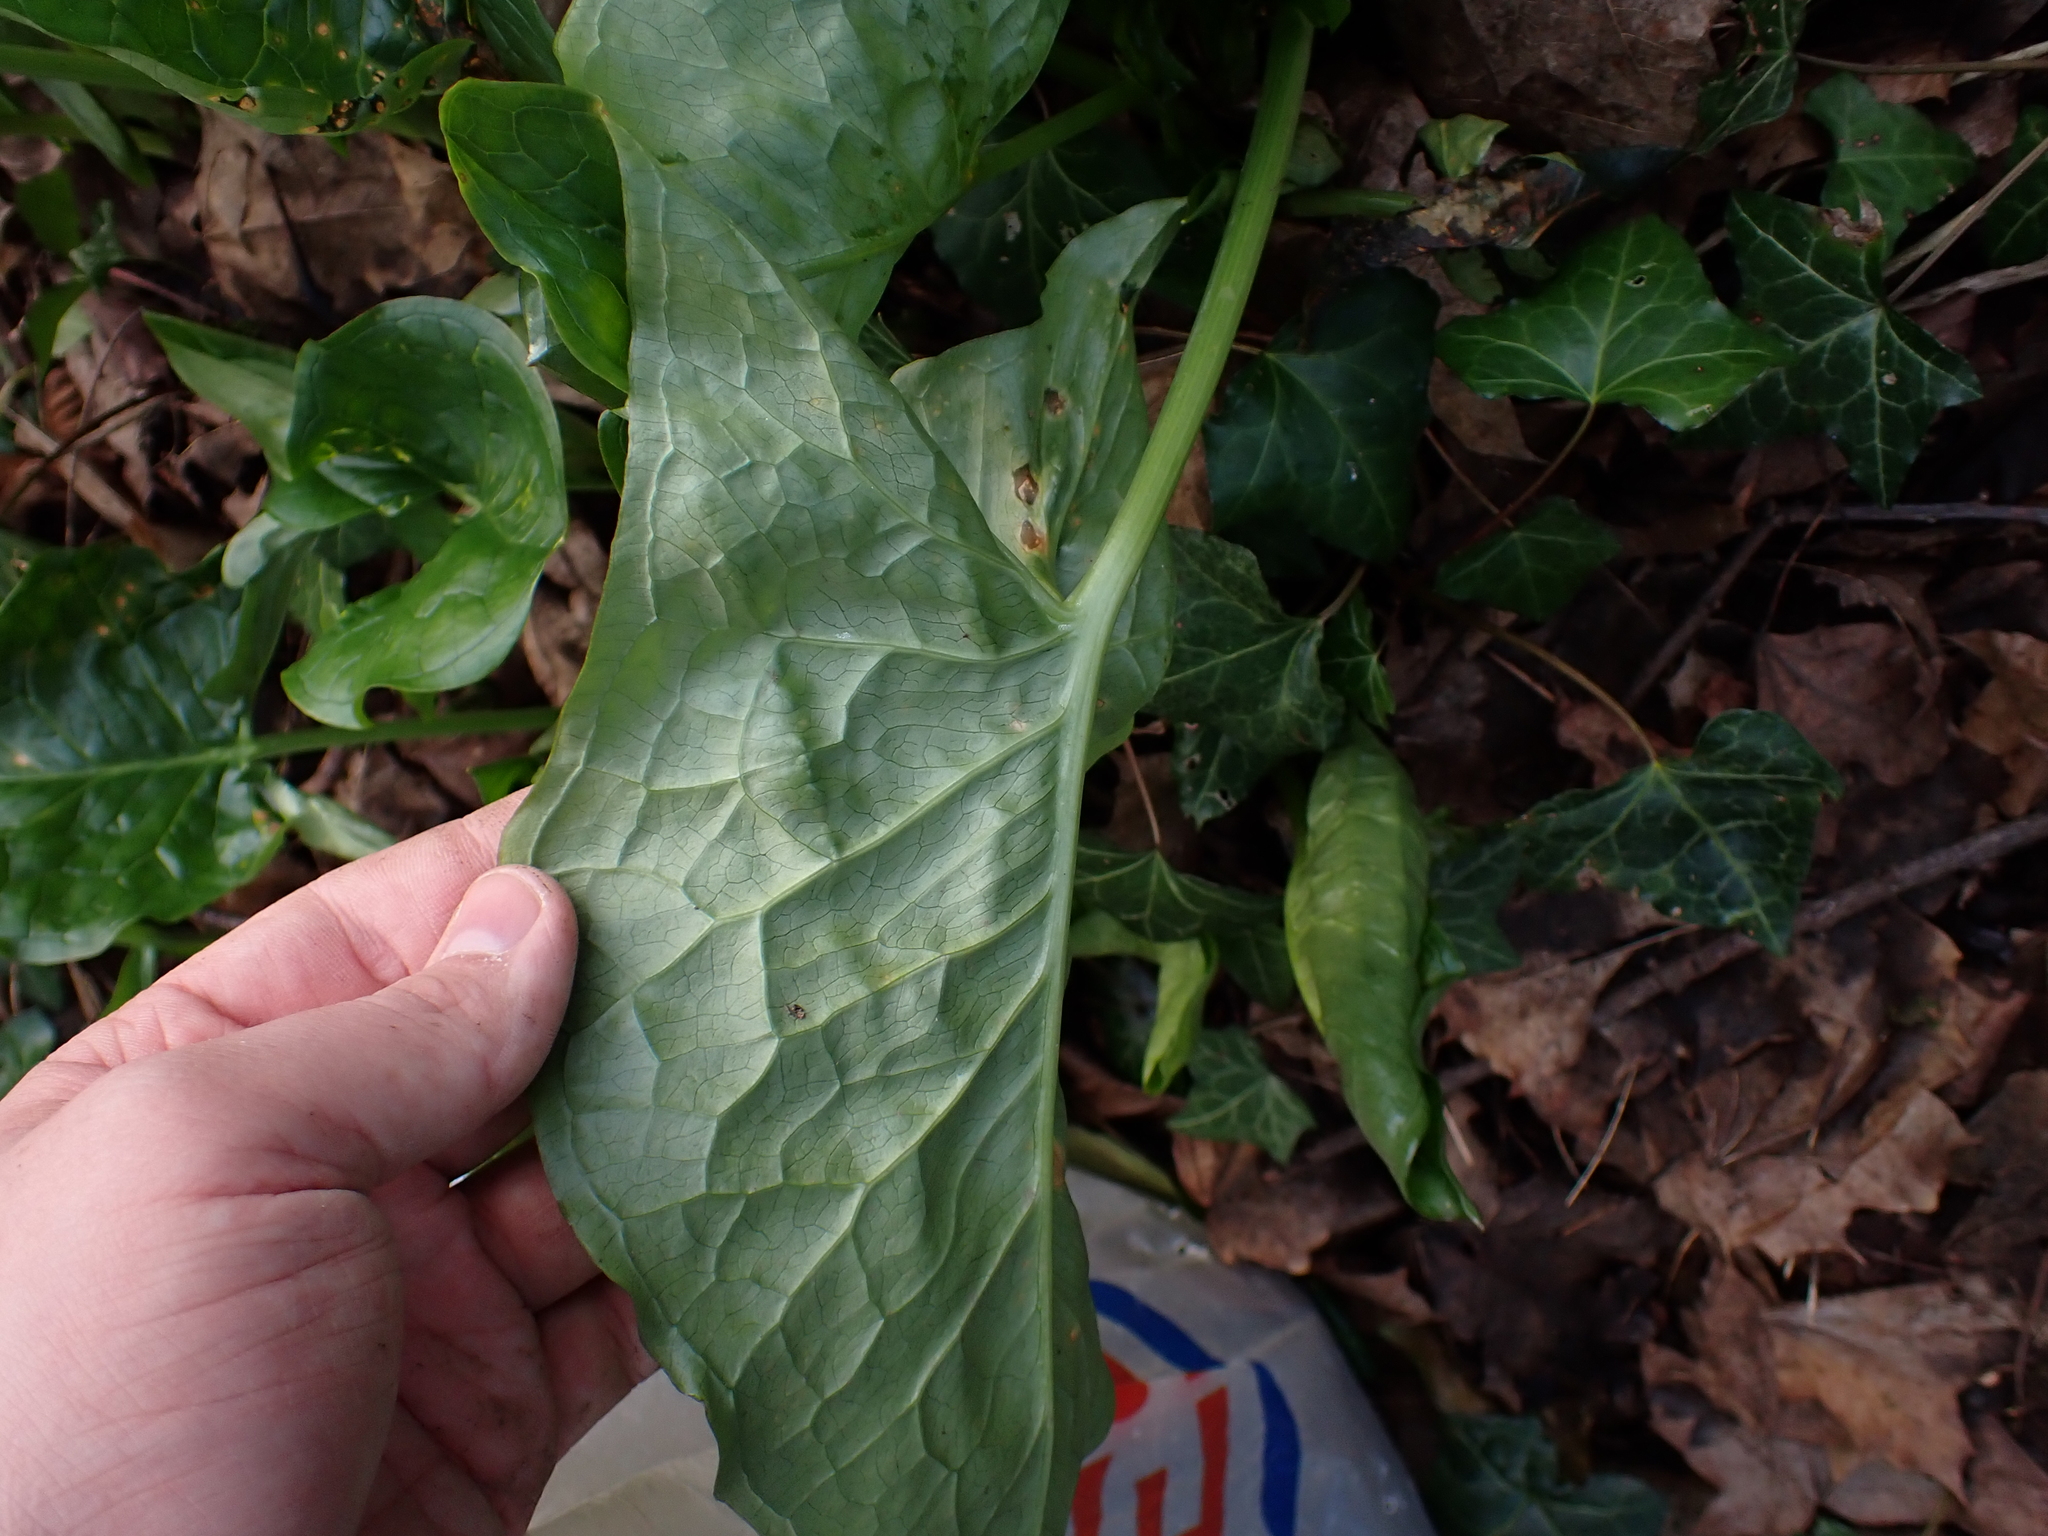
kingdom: Plantae
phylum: Tracheophyta
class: Liliopsida
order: Alismatales
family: Araceae
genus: Arum
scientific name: Arum maculatum
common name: Lords-and-ladies
